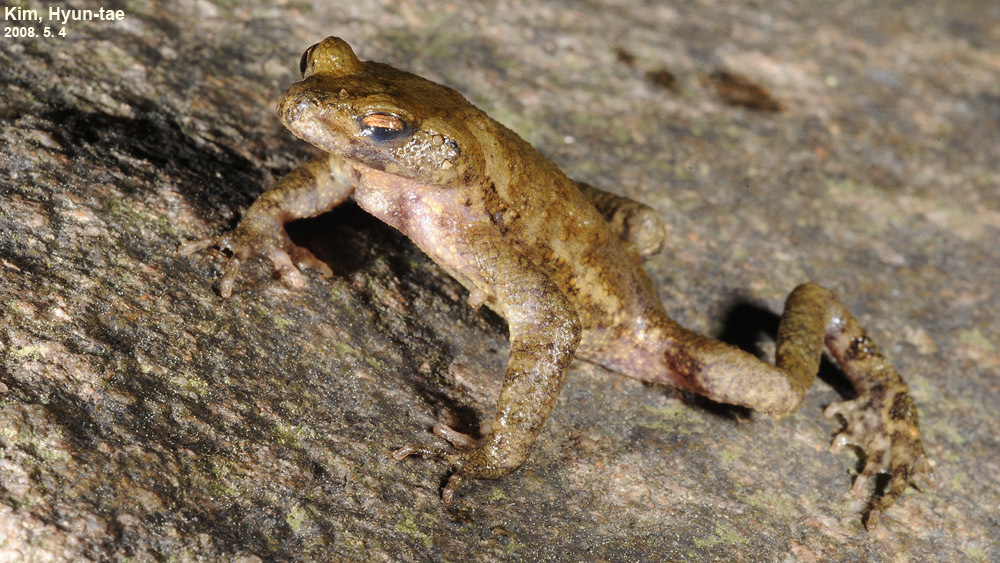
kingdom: Animalia
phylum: Chordata
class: Amphibia
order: Anura
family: Bufonidae
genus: Bufo
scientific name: Bufo stejnegeri
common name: Water toad
